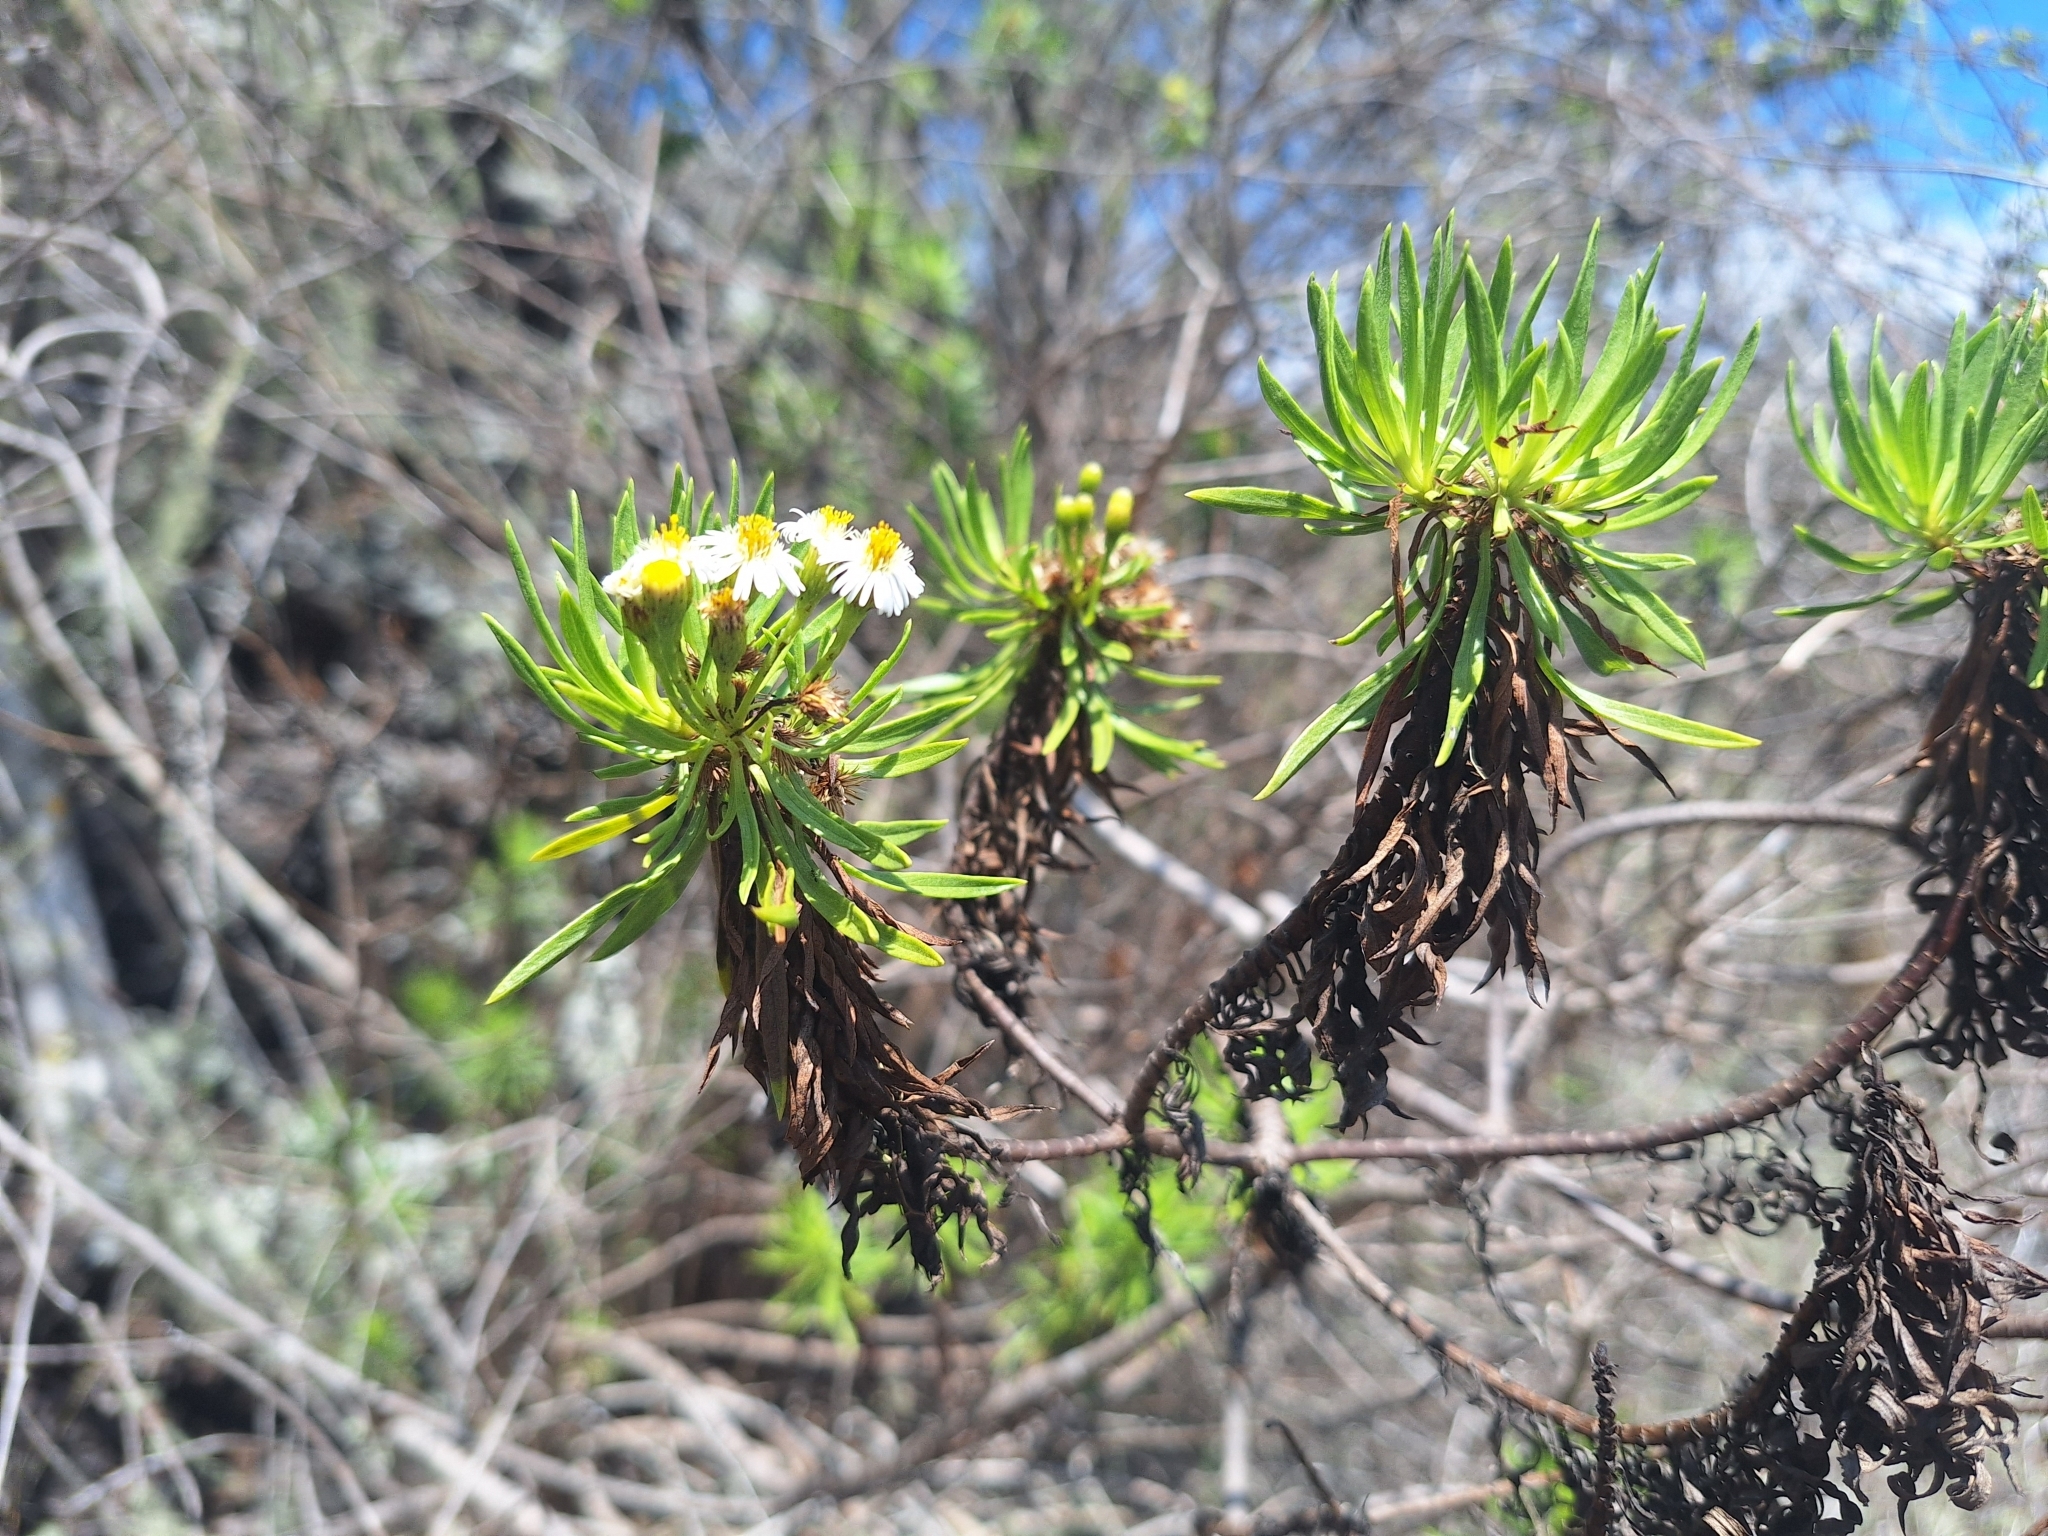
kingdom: Plantae
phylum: Tracheophyta
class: Magnoliopsida
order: Asterales
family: Asteraceae
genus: Erigeron
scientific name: Erigeron lancifolius
